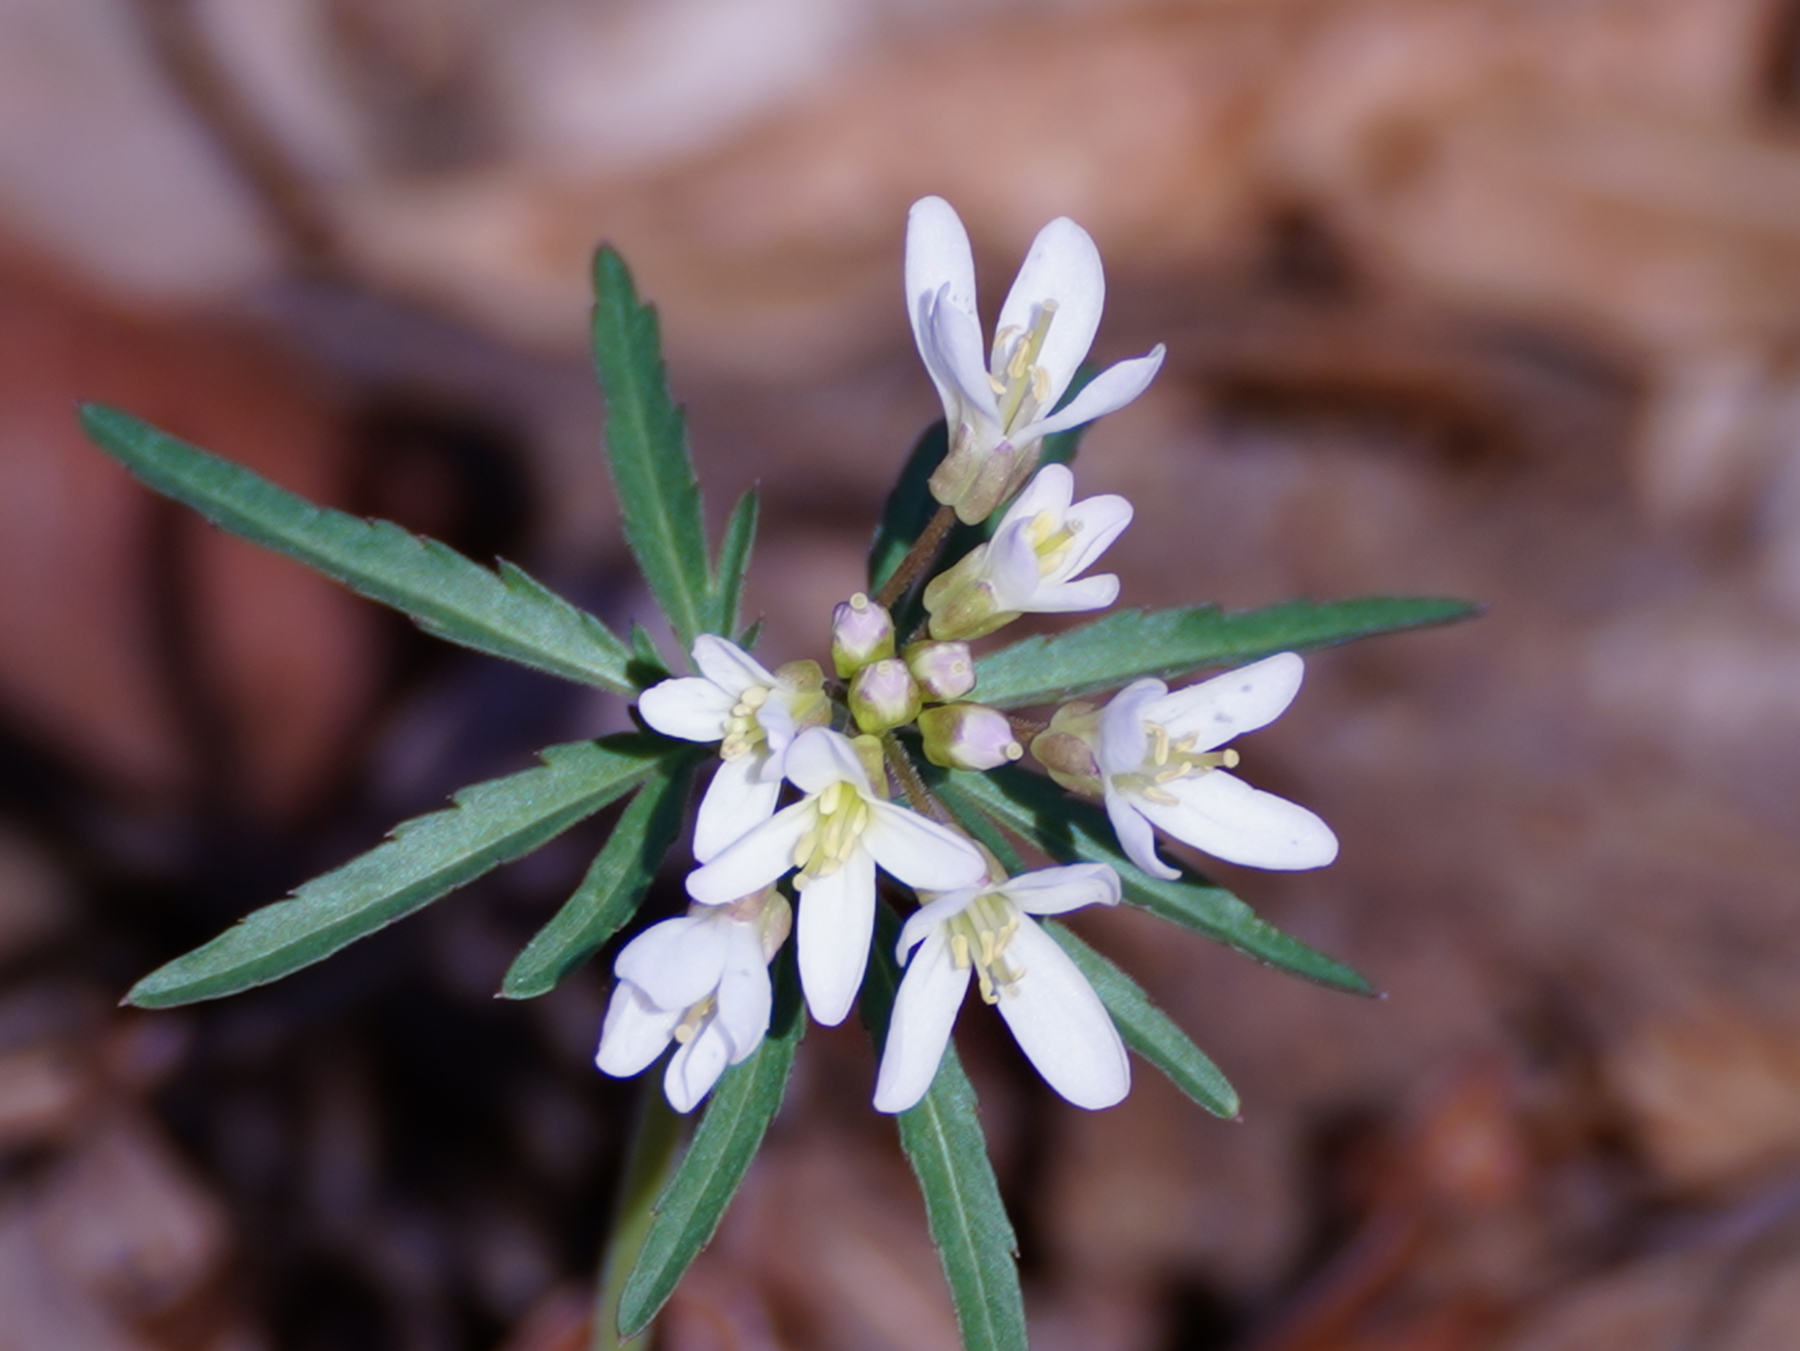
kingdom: Plantae
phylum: Tracheophyta
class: Magnoliopsida
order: Brassicales
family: Brassicaceae
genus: Cardamine
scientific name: Cardamine concatenata
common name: Cut-leaf toothcup
